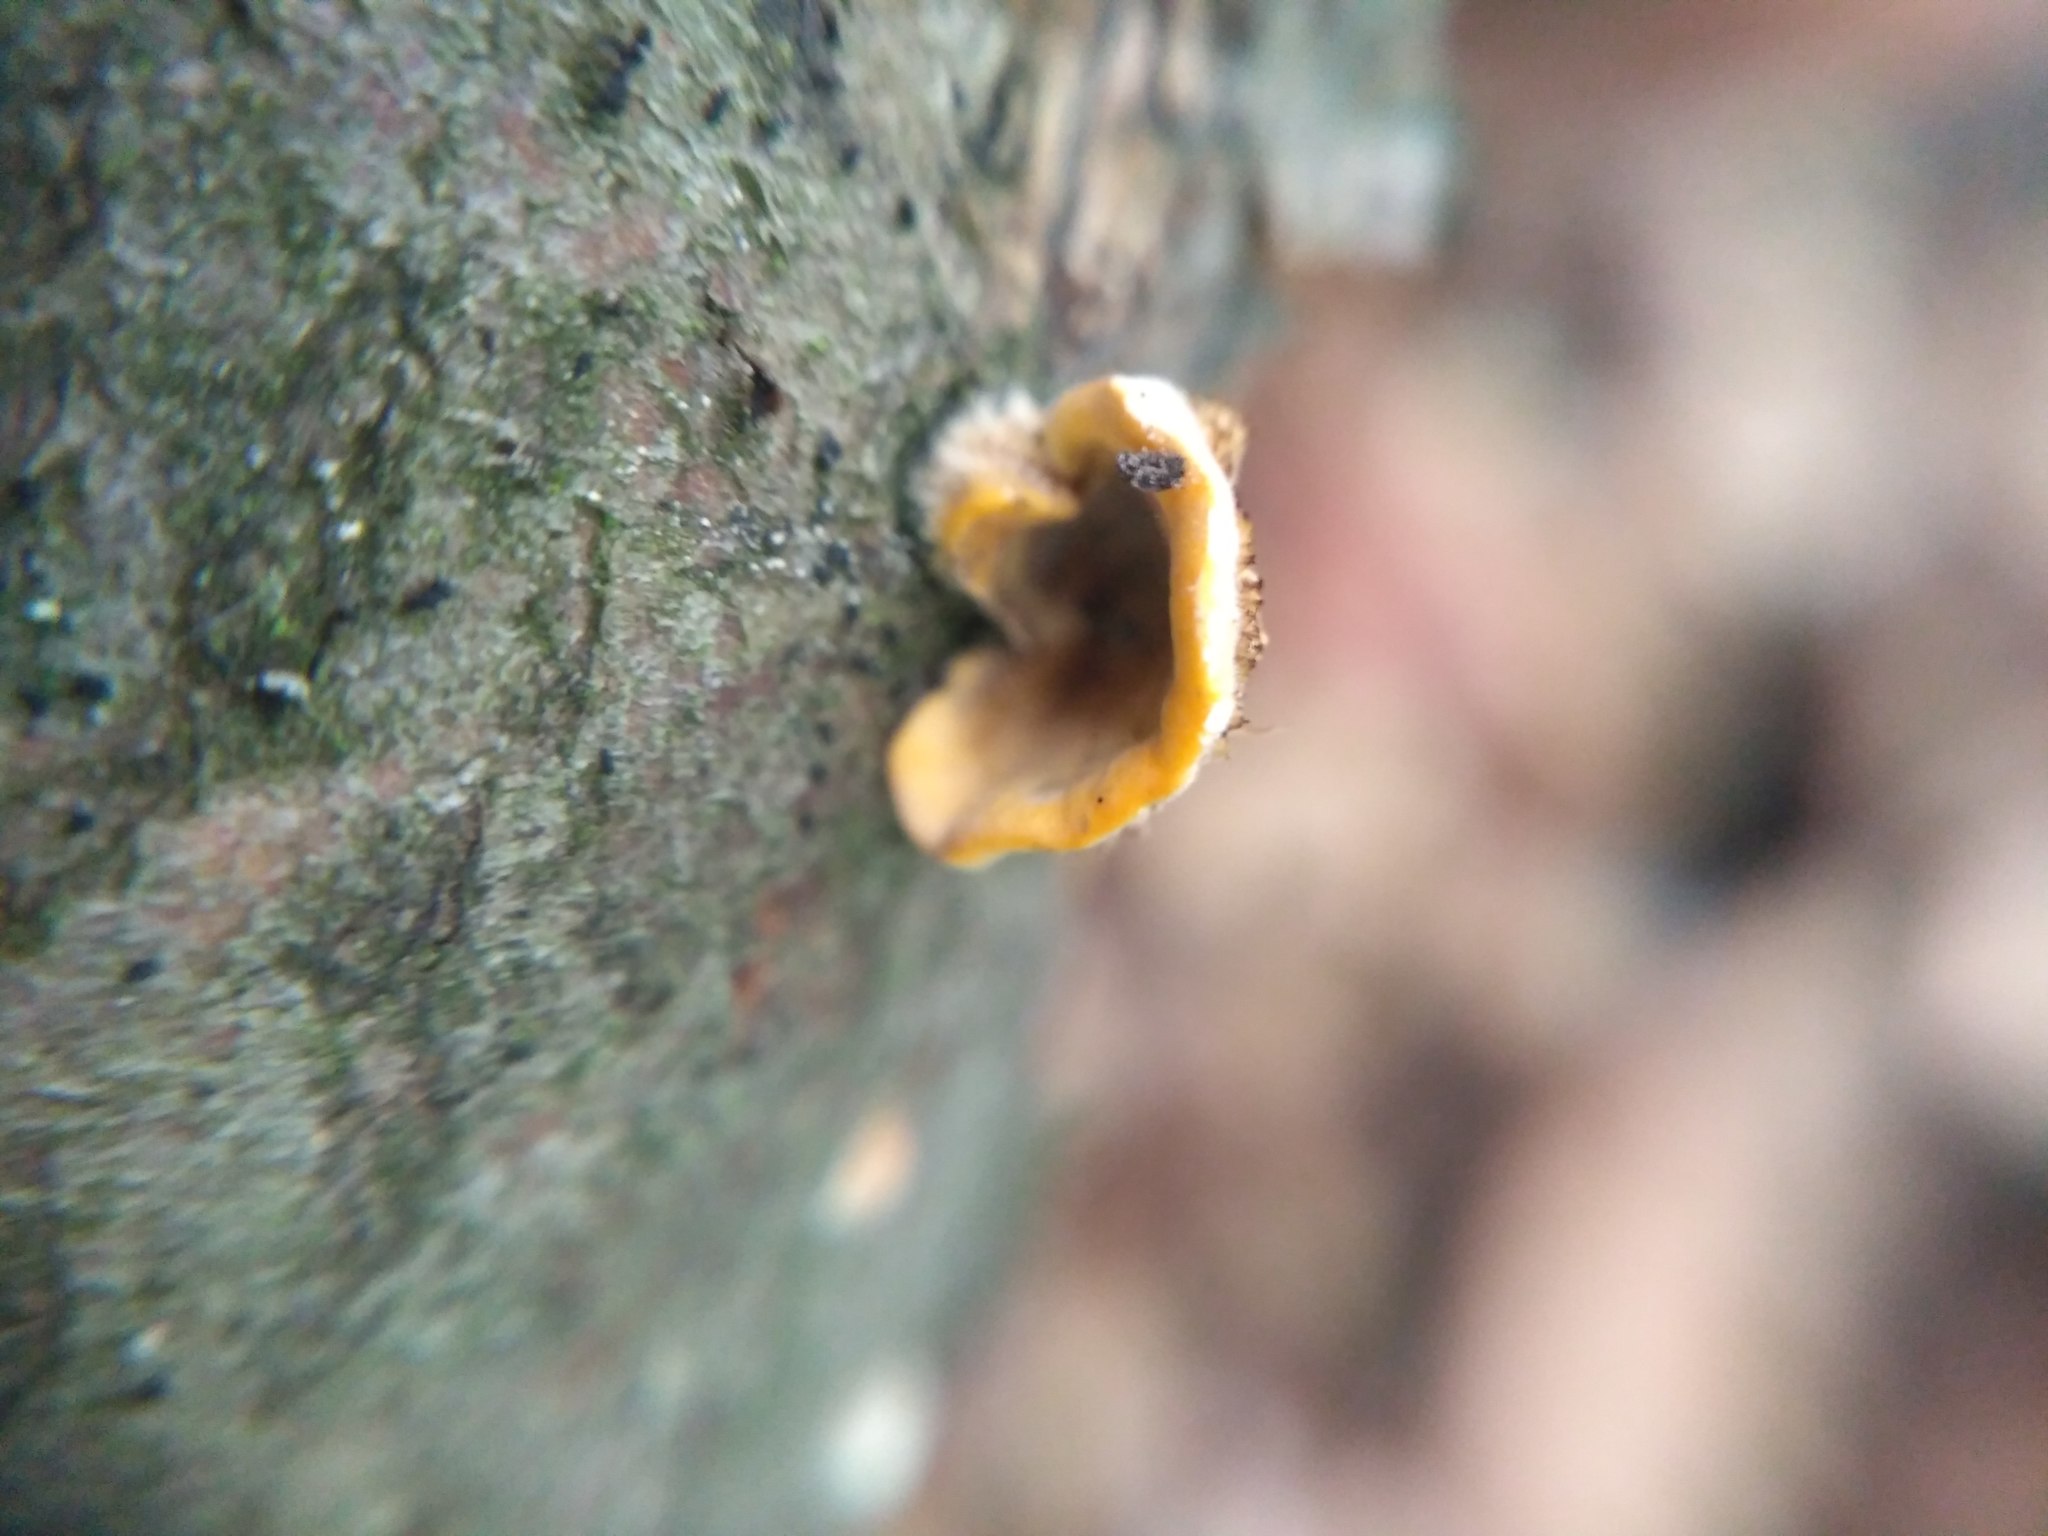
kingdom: Fungi
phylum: Basidiomycota
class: Agaricomycetes
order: Russulales
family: Stereaceae
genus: Stereum
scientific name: Stereum hirsutum
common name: Hairy curtain crust
